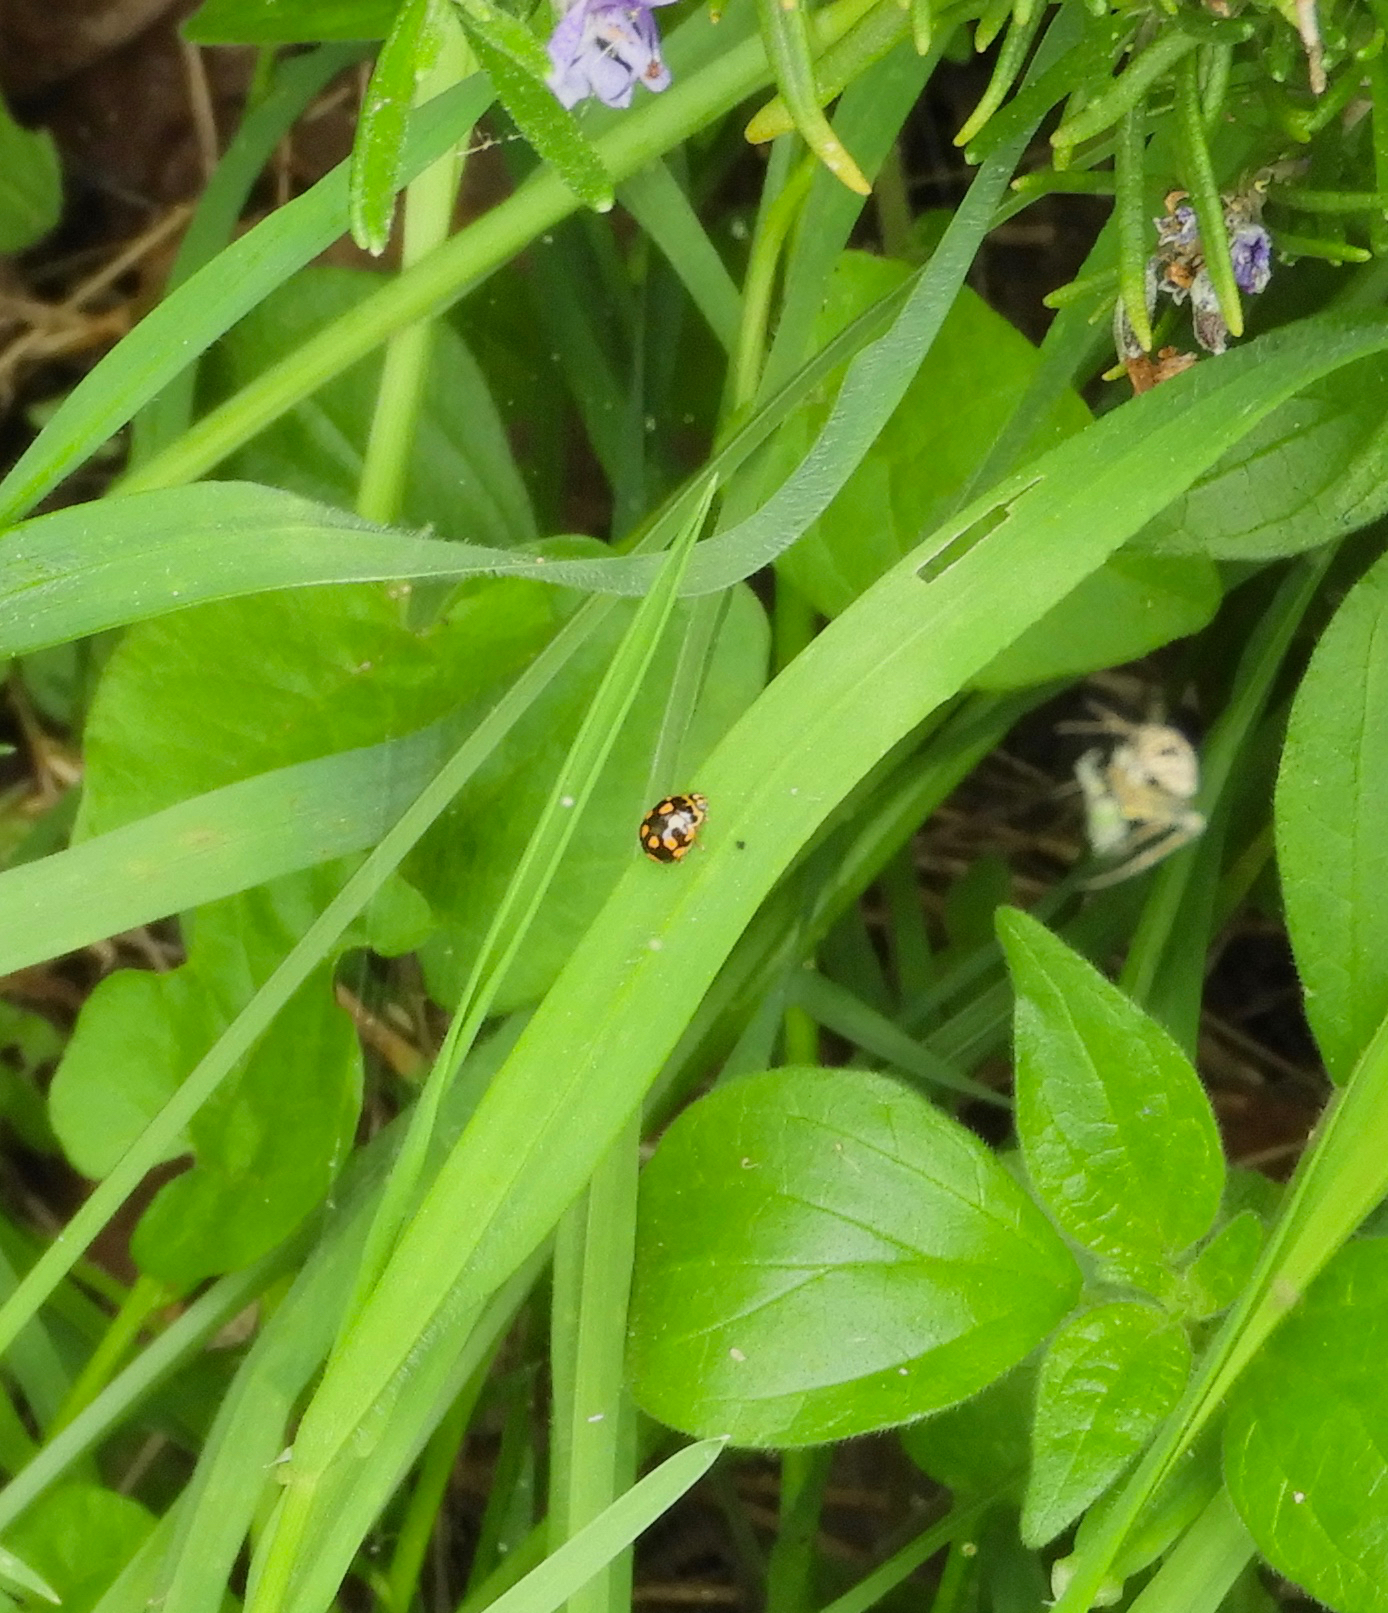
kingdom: Animalia
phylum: Arthropoda
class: Insecta
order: Coleoptera
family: Coccinellidae
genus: Propylaea
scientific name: Propylaea quatuordecimpunctata
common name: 14-spotted ladybird beetle
